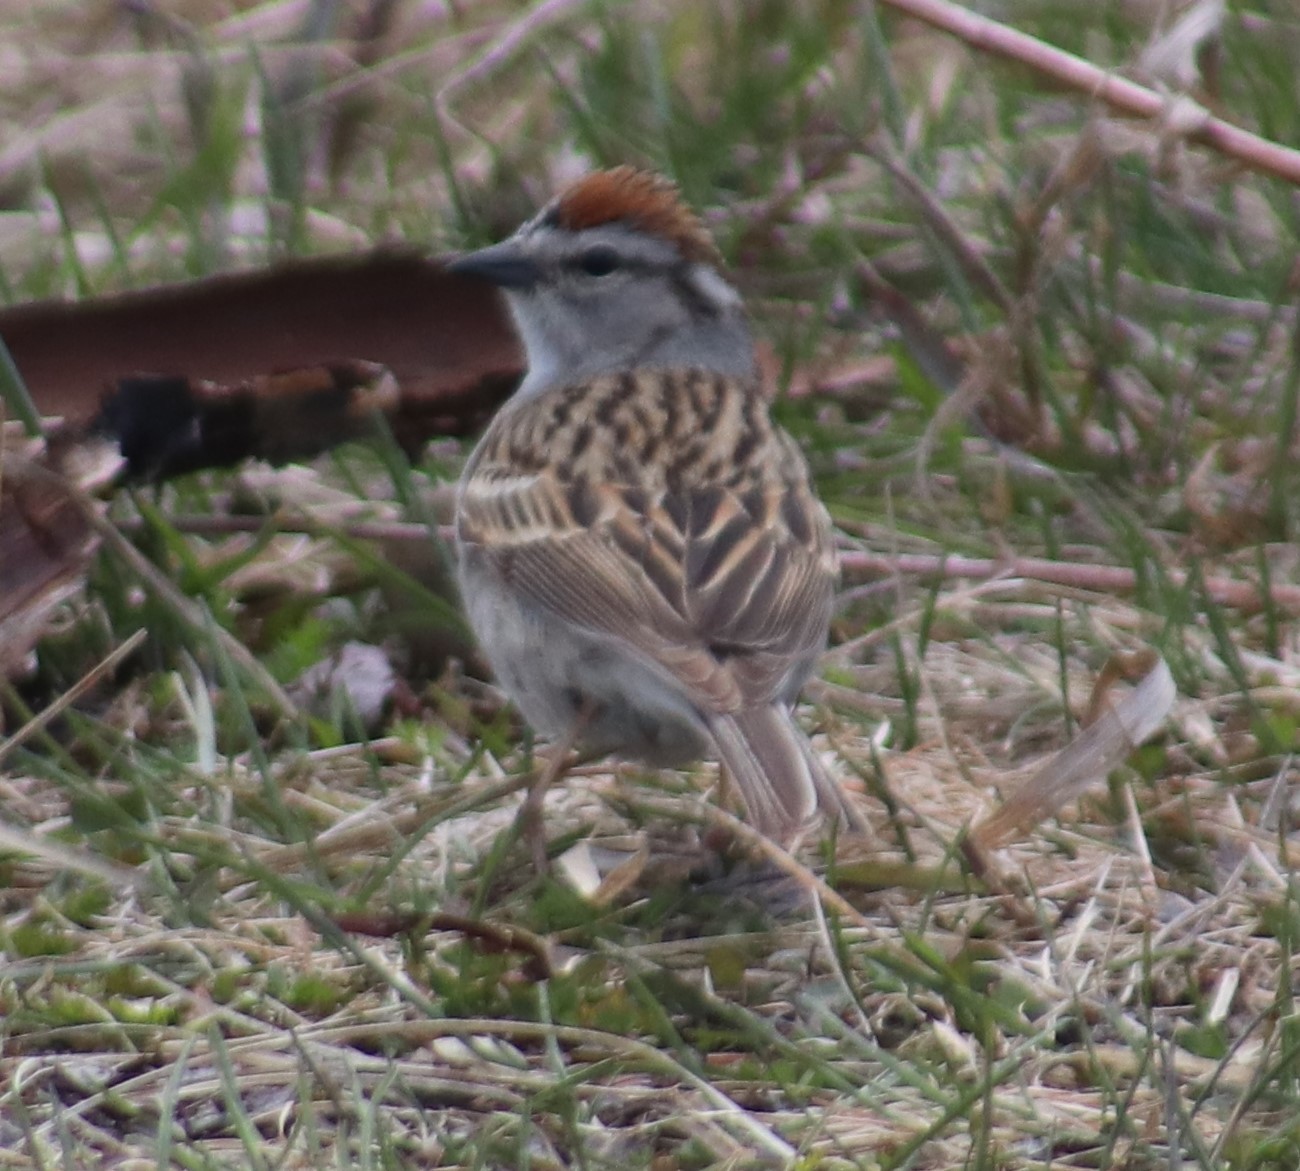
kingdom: Animalia
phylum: Chordata
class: Aves
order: Passeriformes
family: Passerellidae
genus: Spizella
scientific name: Spizella passerina
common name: Chipping sparrow
